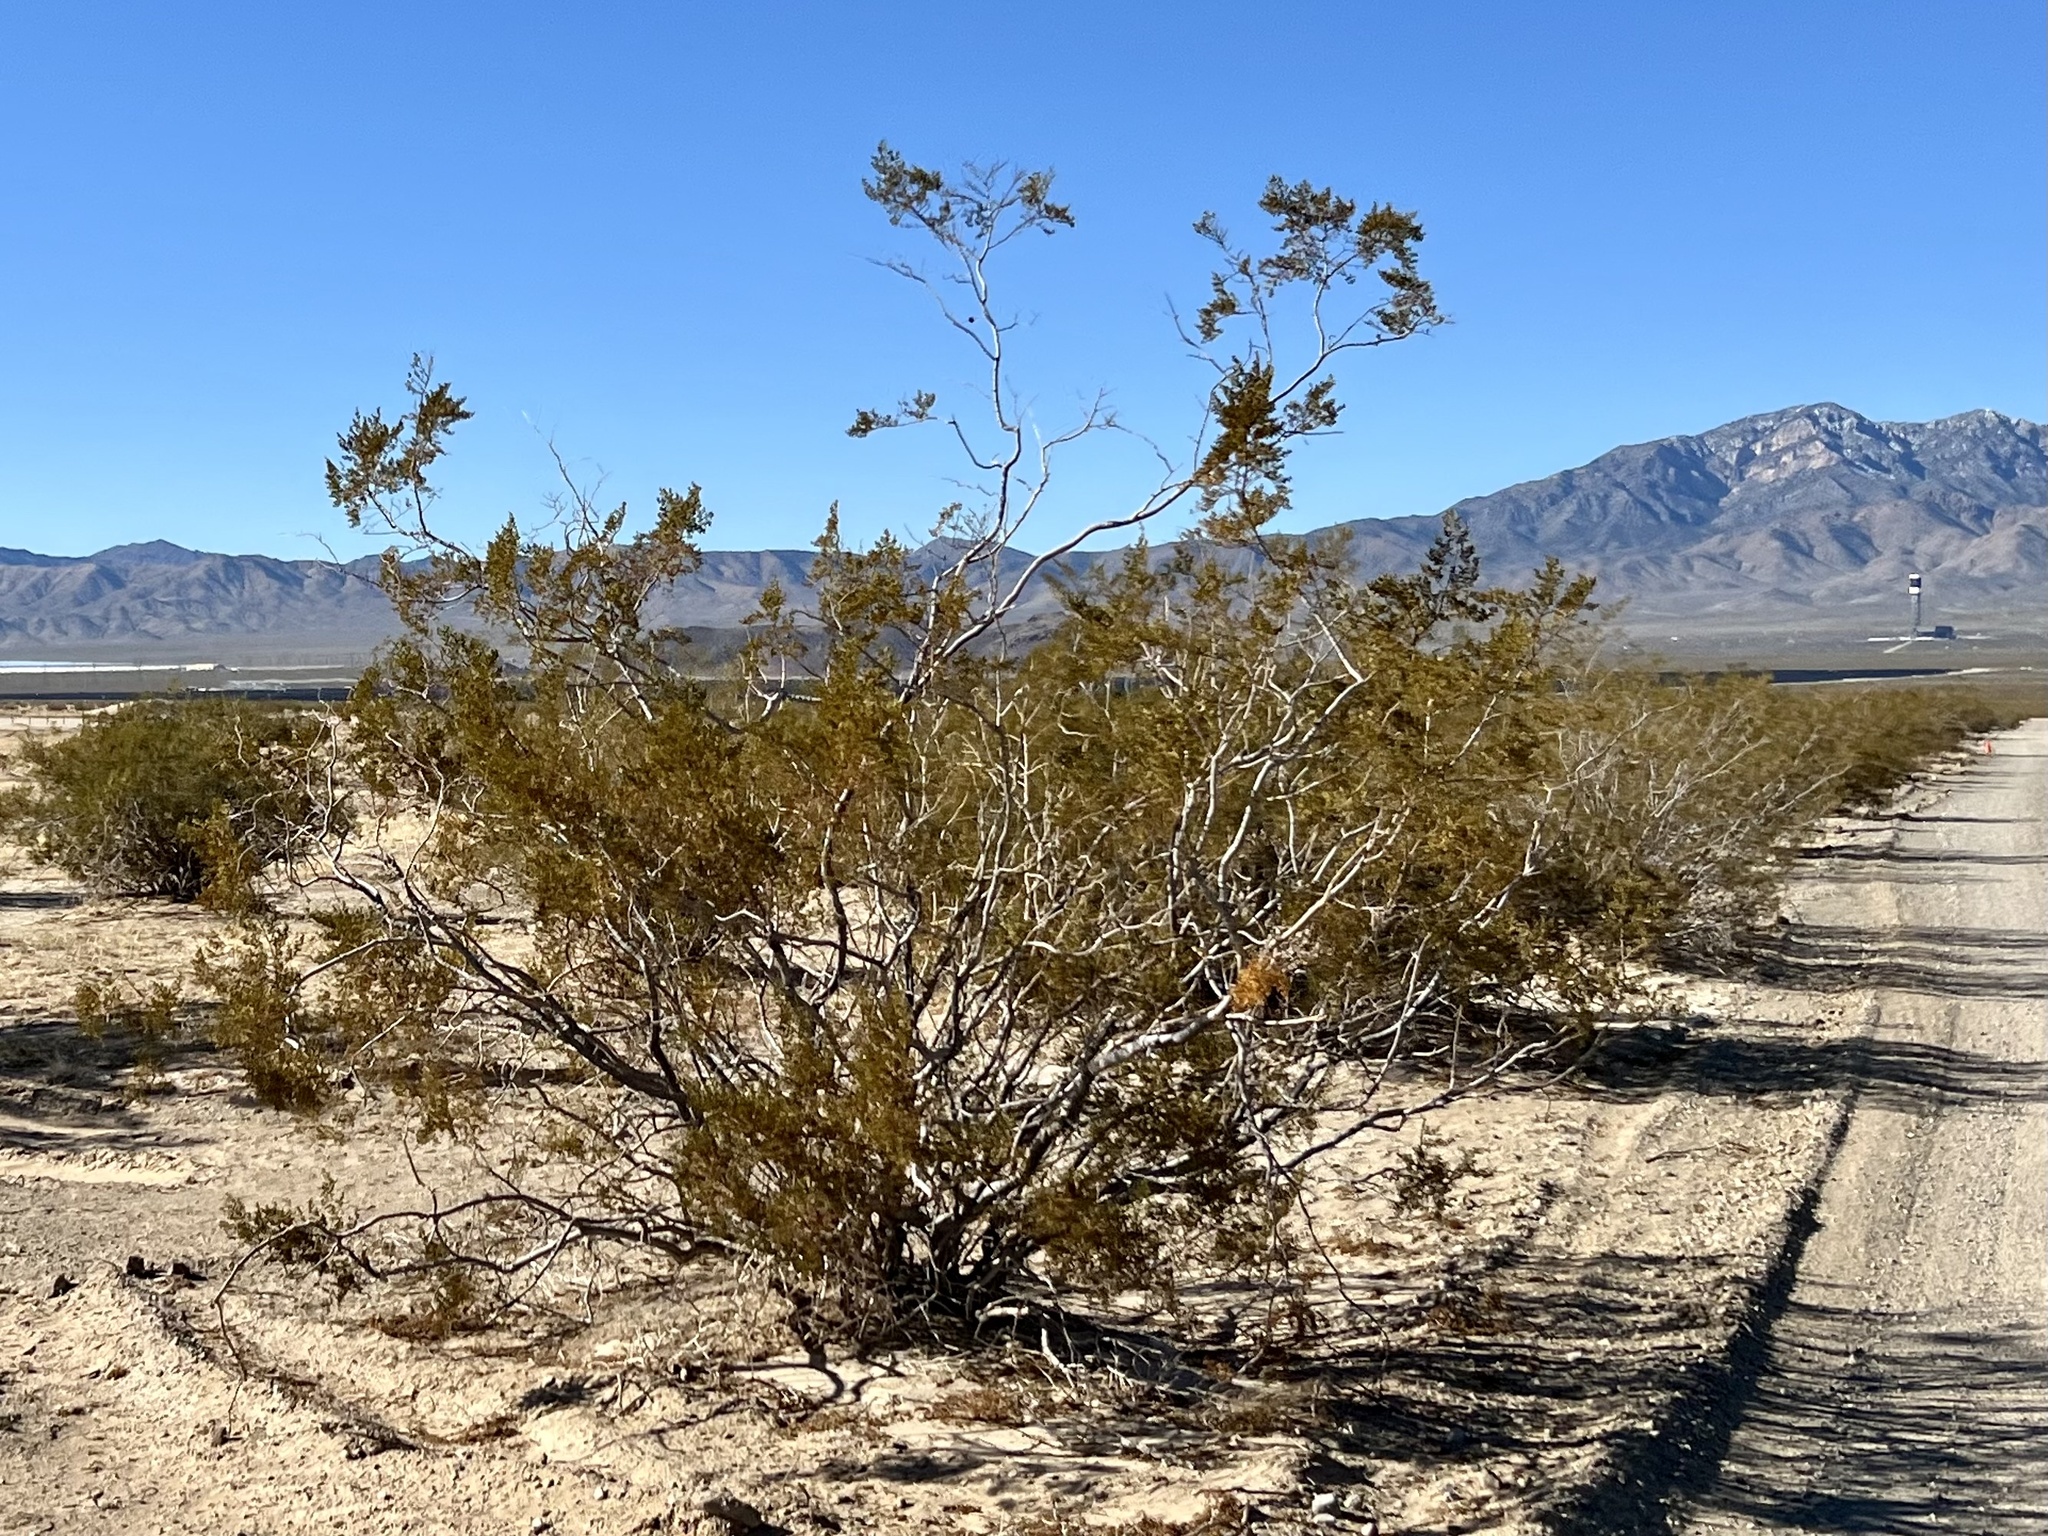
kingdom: Plantae
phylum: Tracheophyta
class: Magnoliopsida
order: Zygophyllales
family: Zygophyllaceae
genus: Larrea
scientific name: Larrea tridentata
